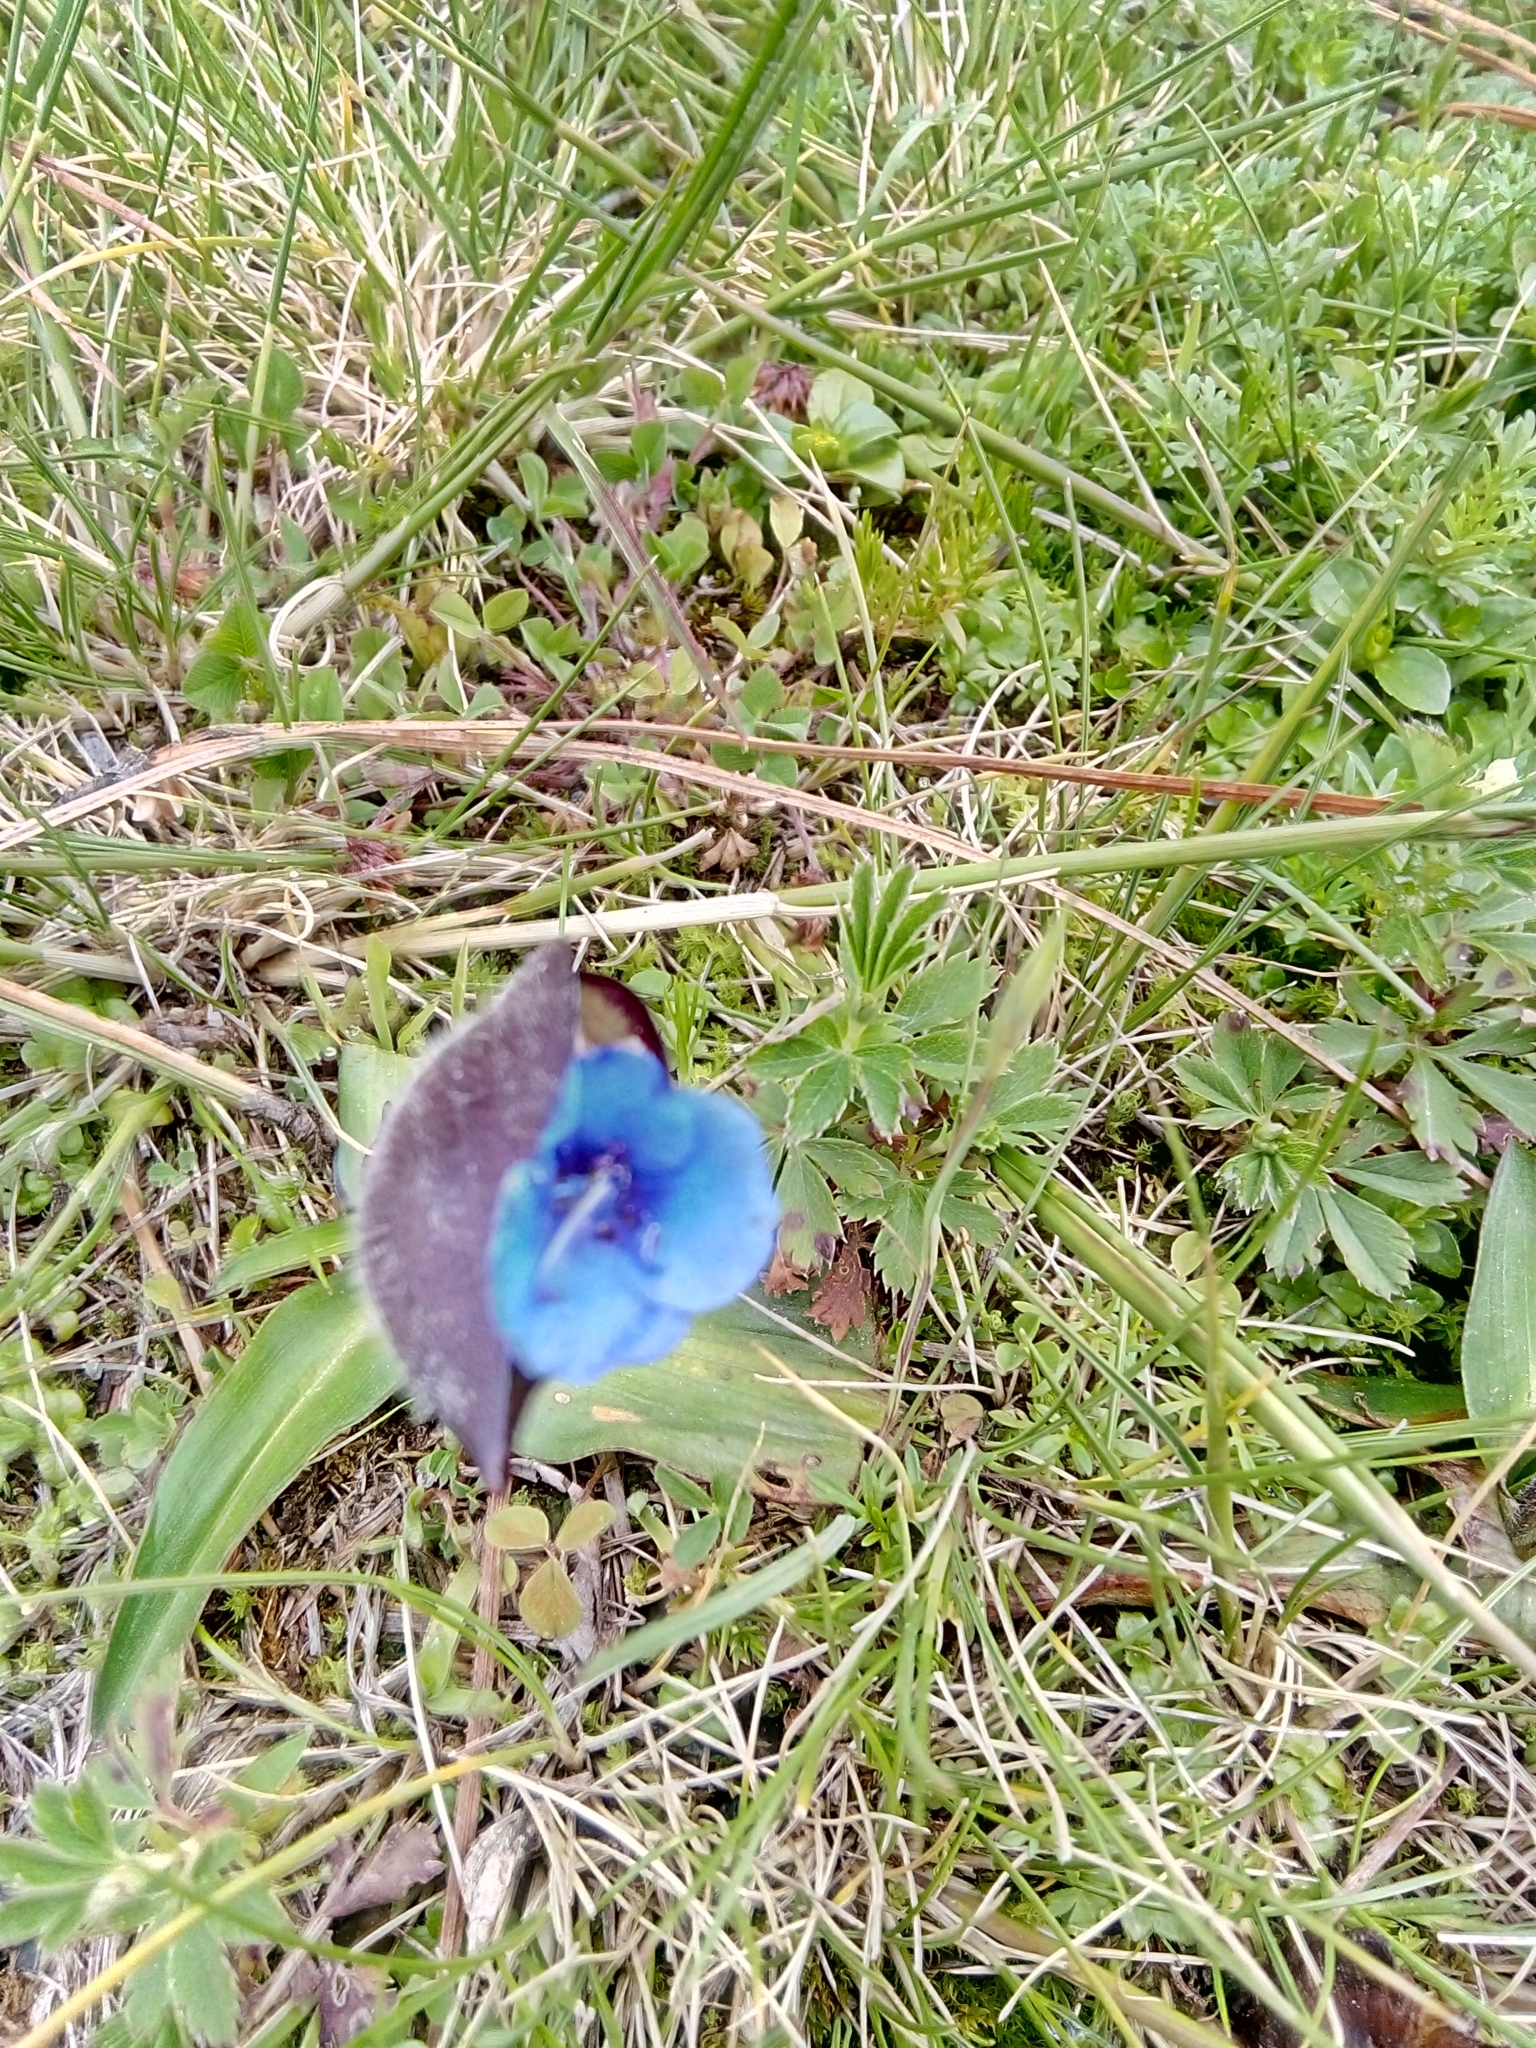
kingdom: Plantae
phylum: Tracheophyta
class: Liliopsida
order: Commelinales
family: Commelinaceae
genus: Commelina
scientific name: Commelina tuberosa
